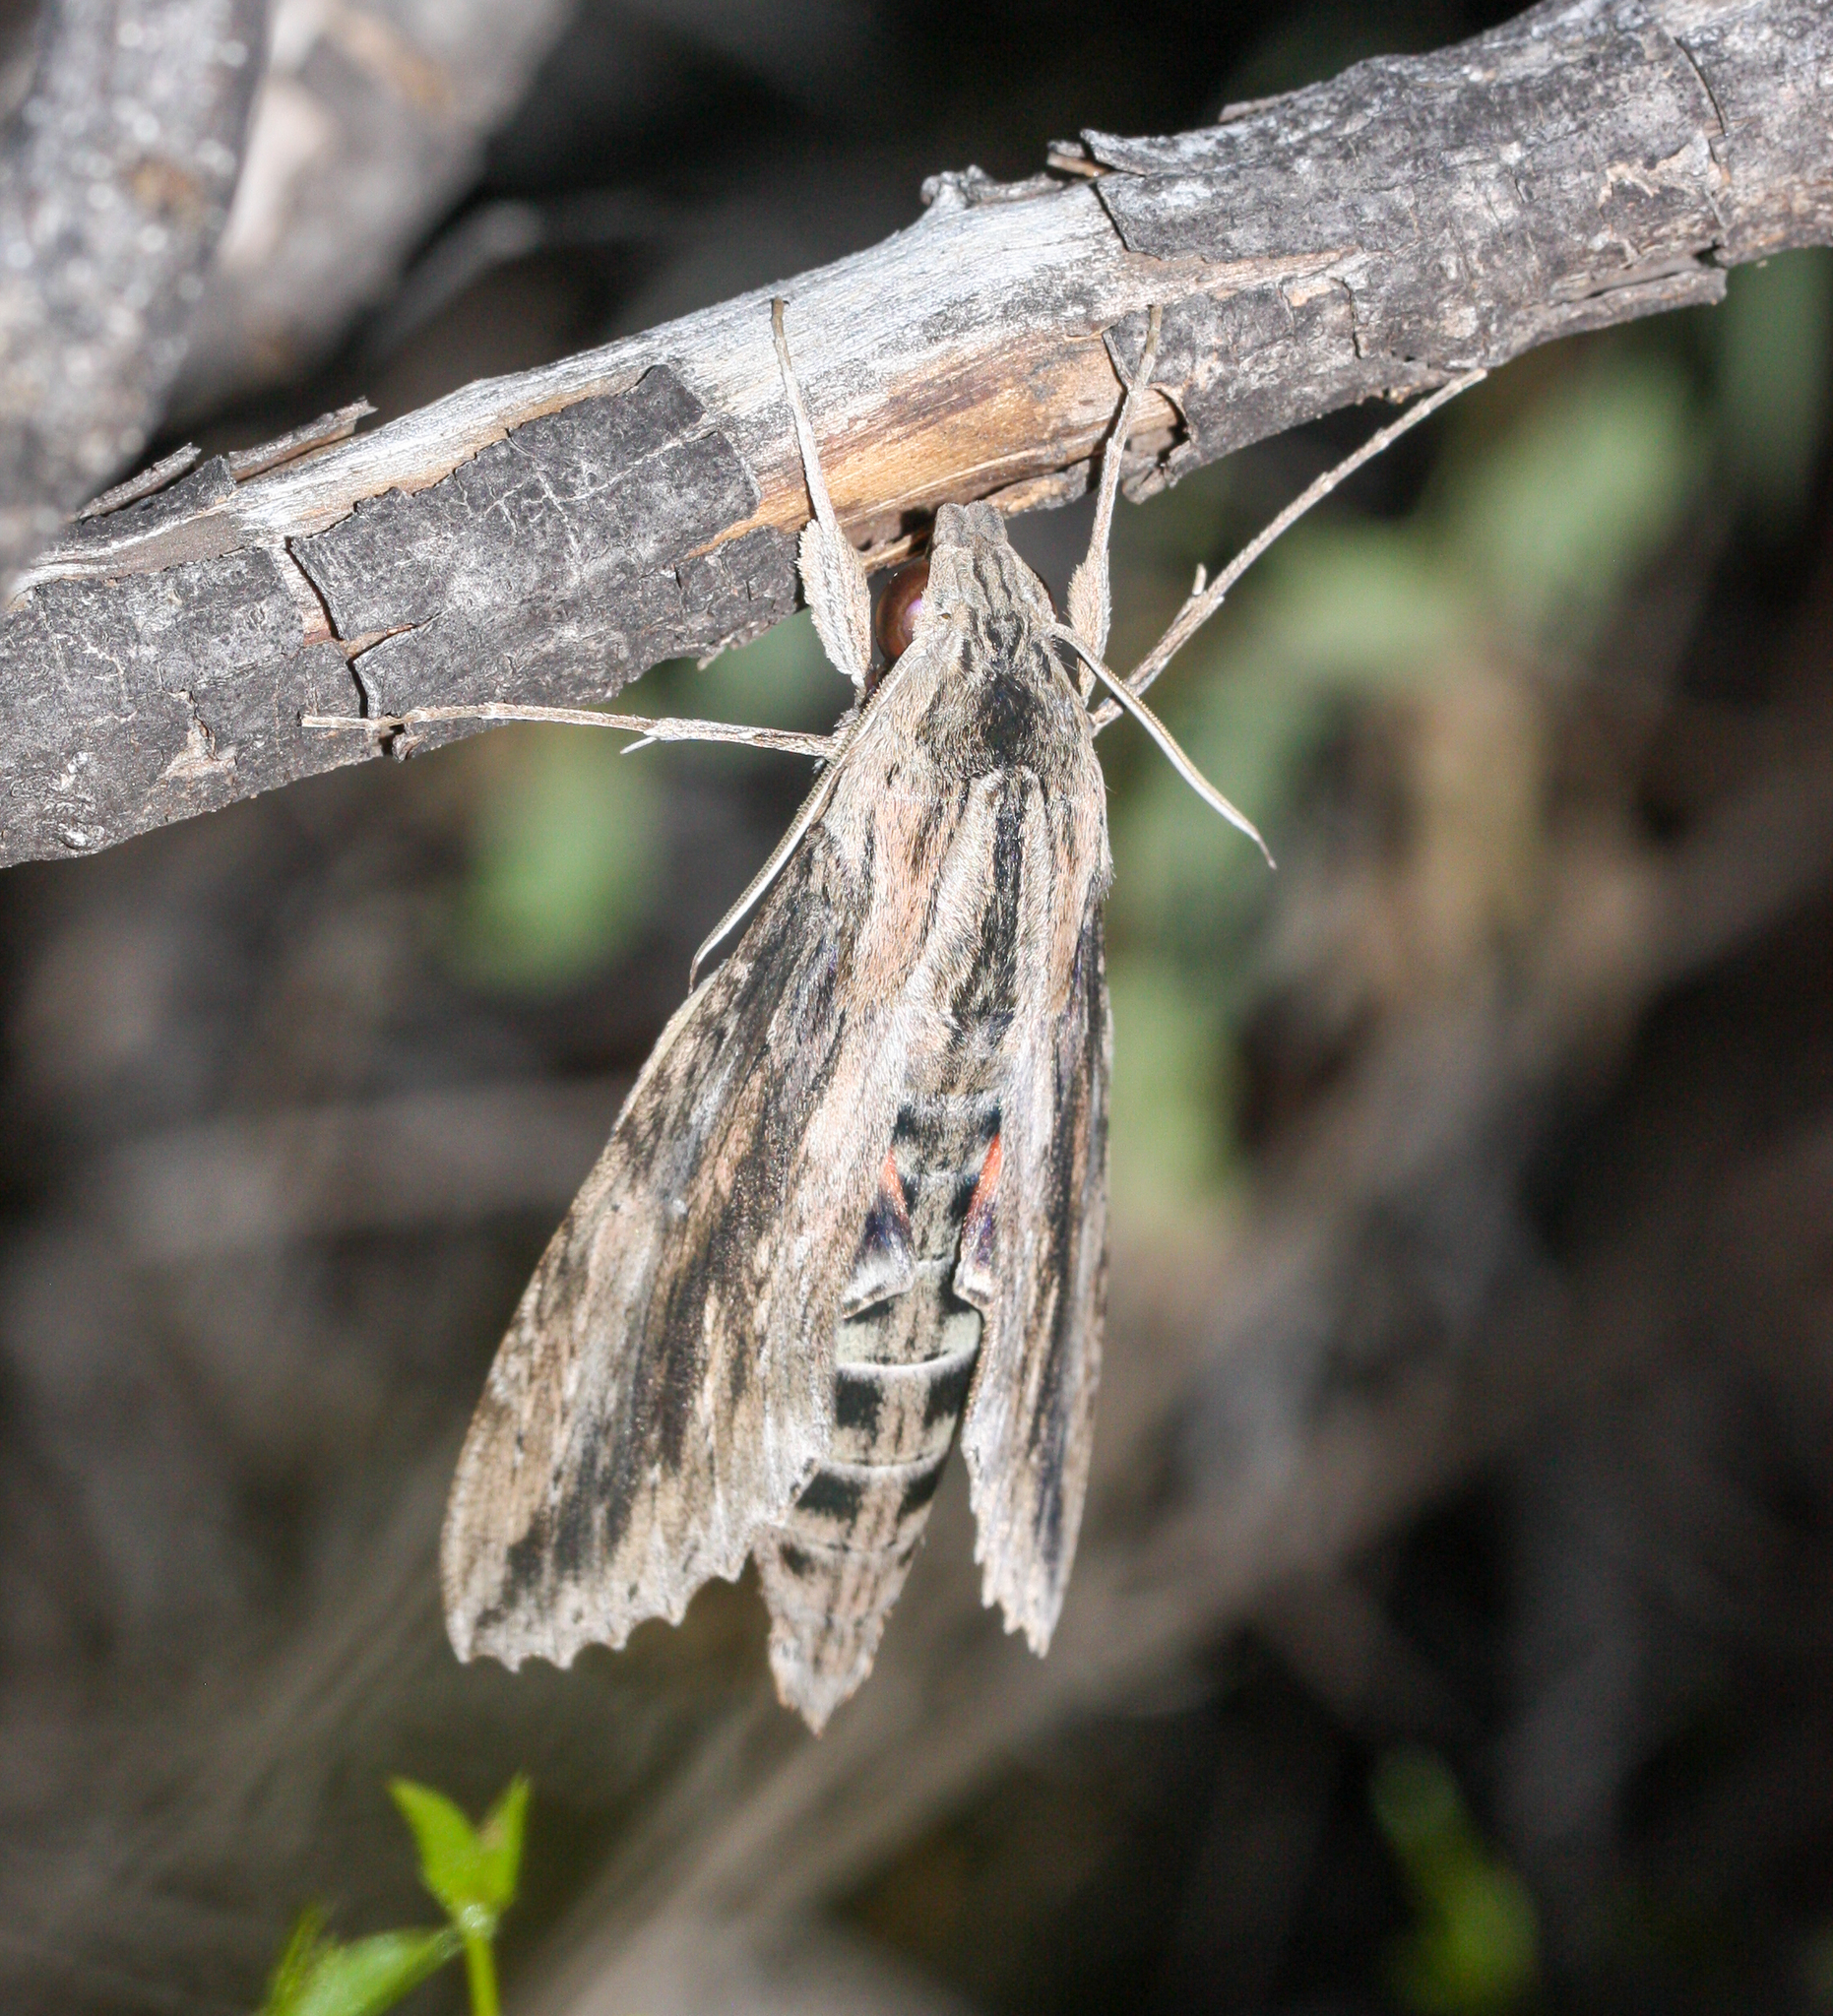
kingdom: Animalia
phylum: Arthropoda
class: Insecta
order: Lepidoptera
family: Sphingidae
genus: Erinnyis
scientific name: Erinnyis ello
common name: Ello sphinx
